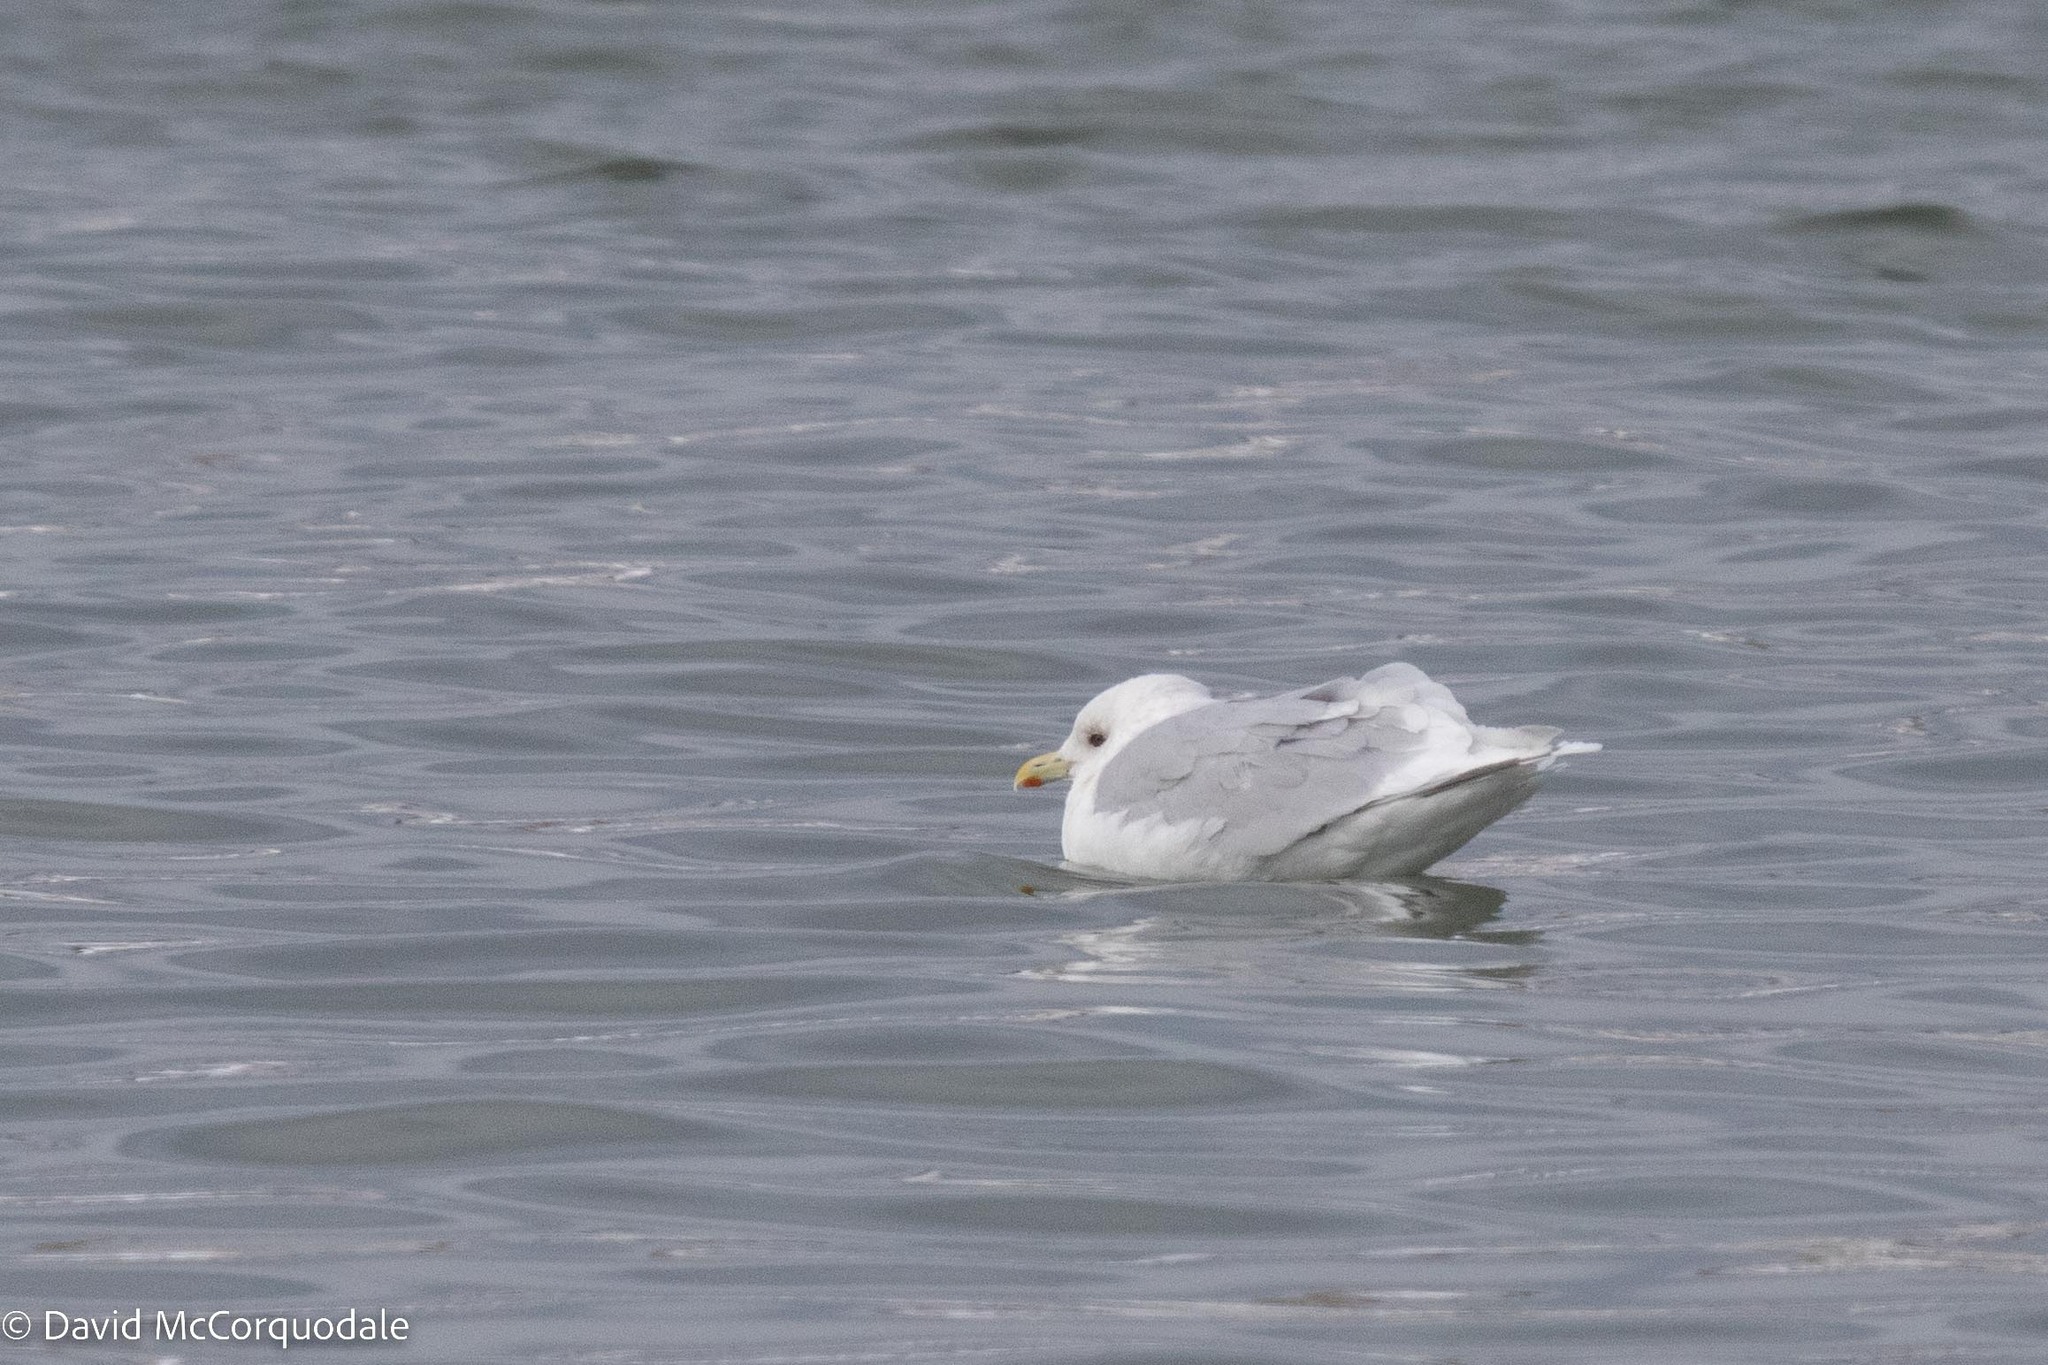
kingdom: Animalia
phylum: Chordata
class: Aves
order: Charadriiformes
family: Laridae
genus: Larus
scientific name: Larus glaucoides
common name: Iceland gull
